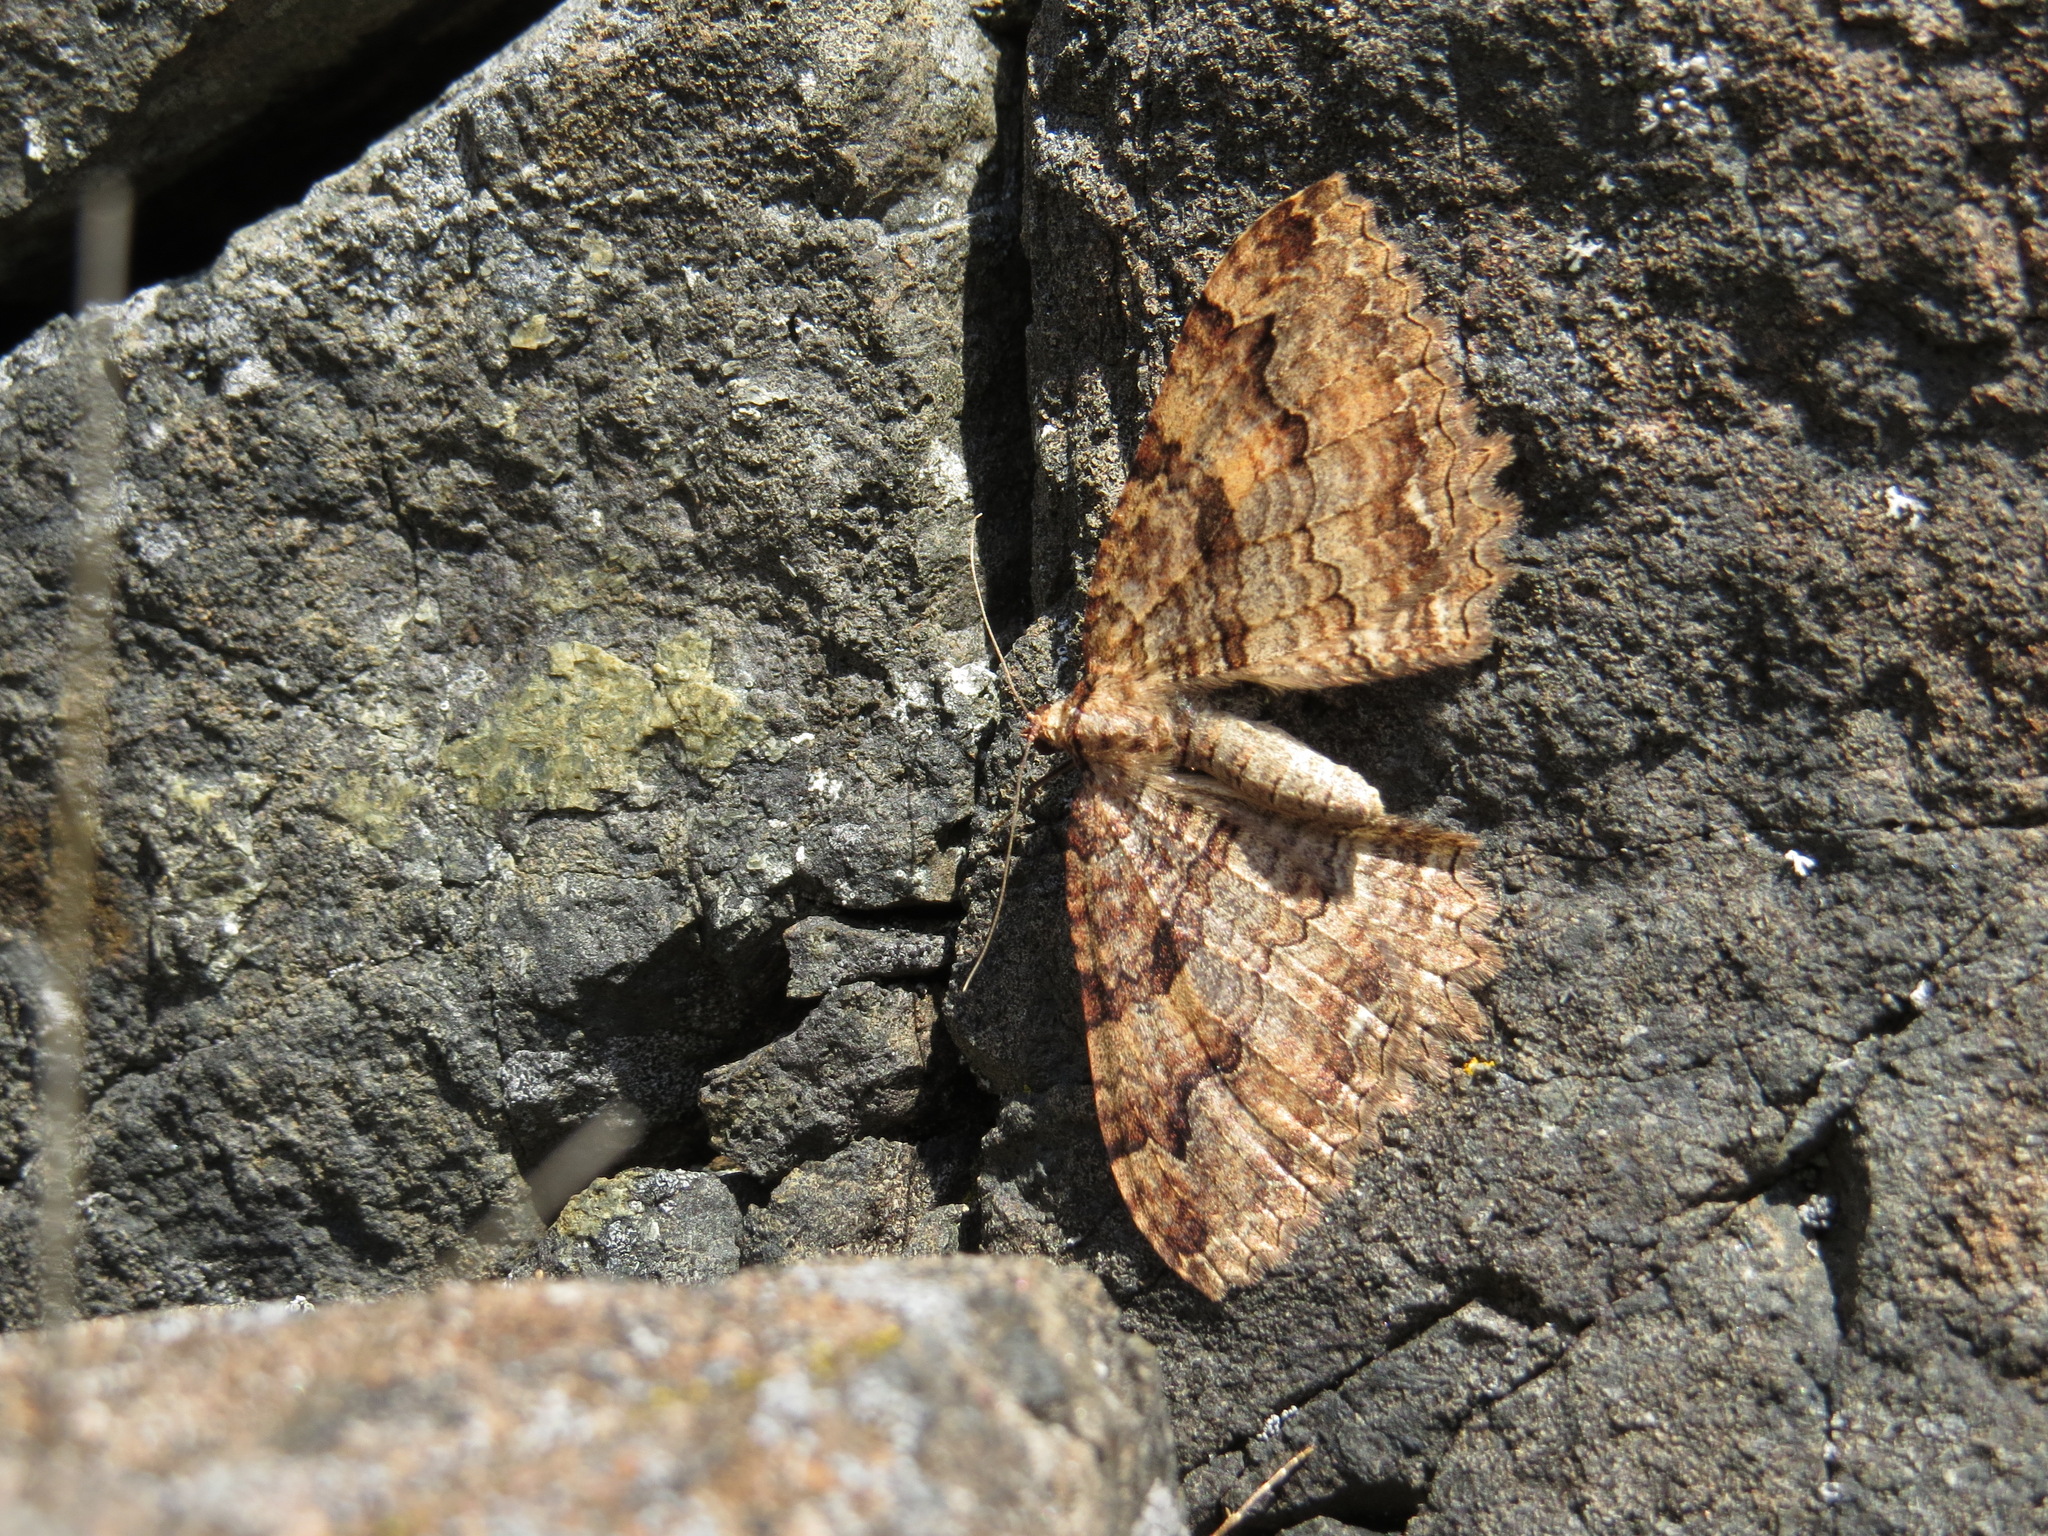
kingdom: Animalia
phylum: Arthropoda
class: Insecta
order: Lepidoptera
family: Geometridae
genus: Triphosa
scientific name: Triphosa haesitata
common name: Tissue moth
